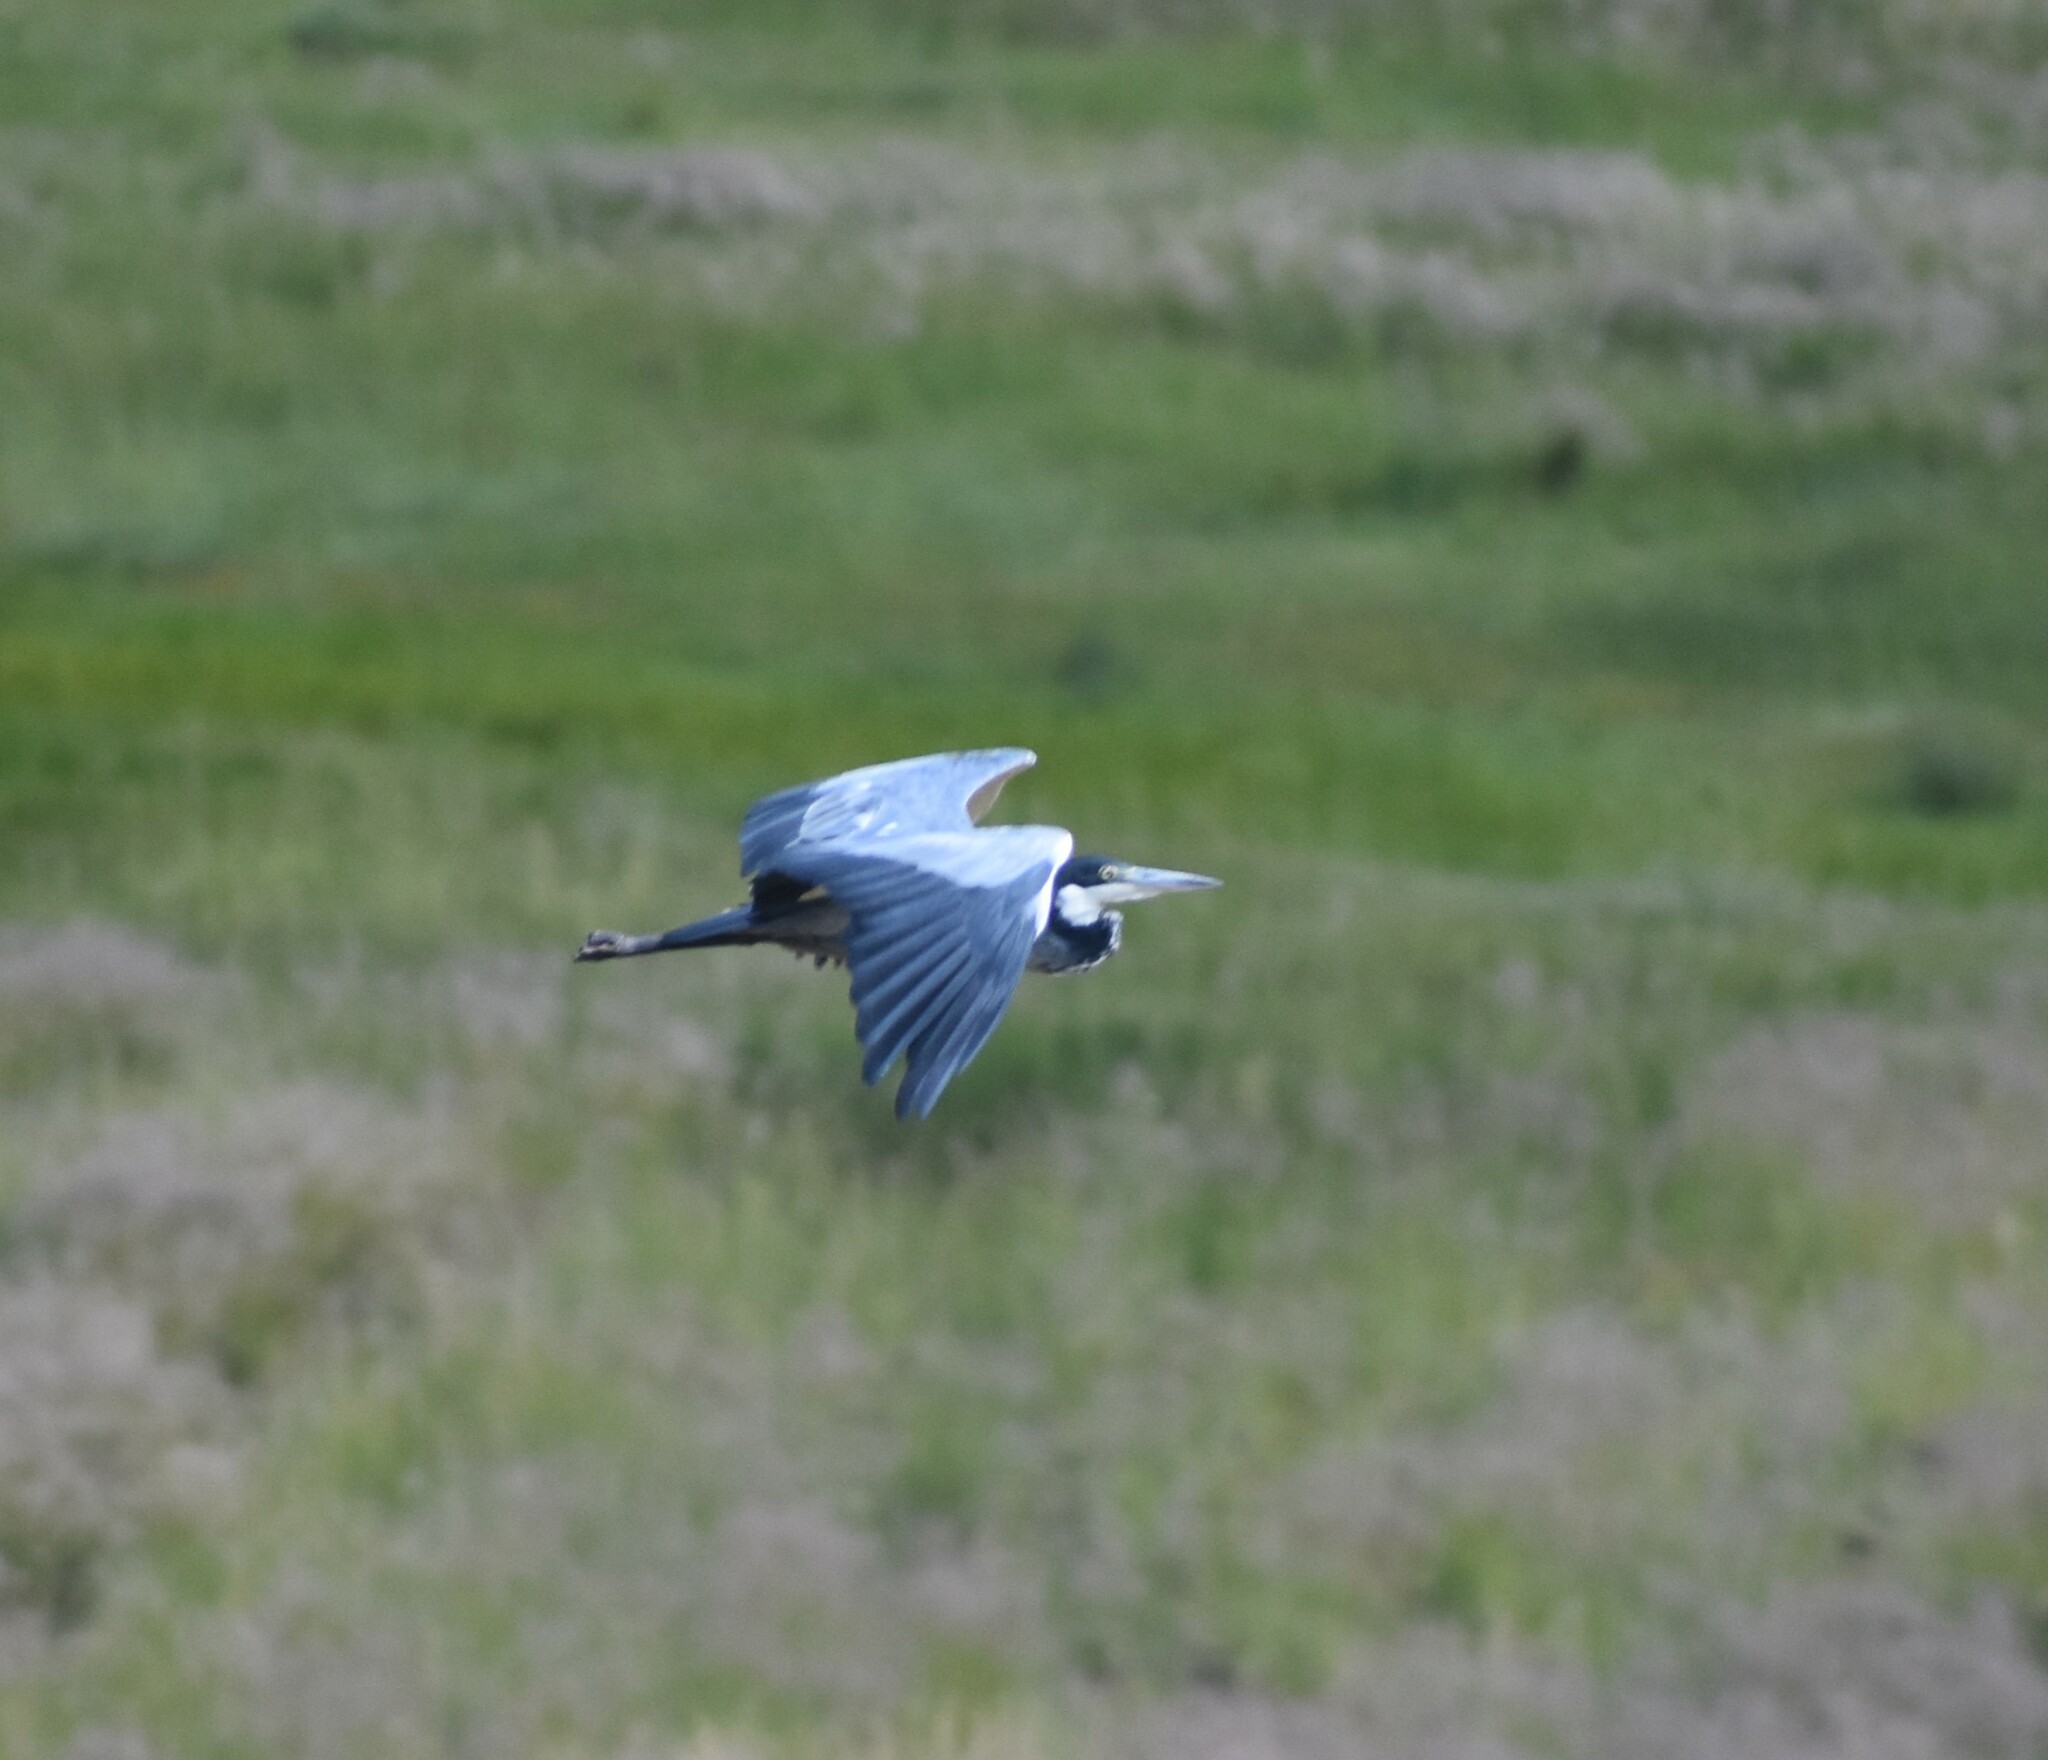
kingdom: Animalia
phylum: Chordata
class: Aves
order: Pelecaniformes
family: Ardeidae
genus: Ardea
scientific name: Ardea melanocephala
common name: Black-headed heron
